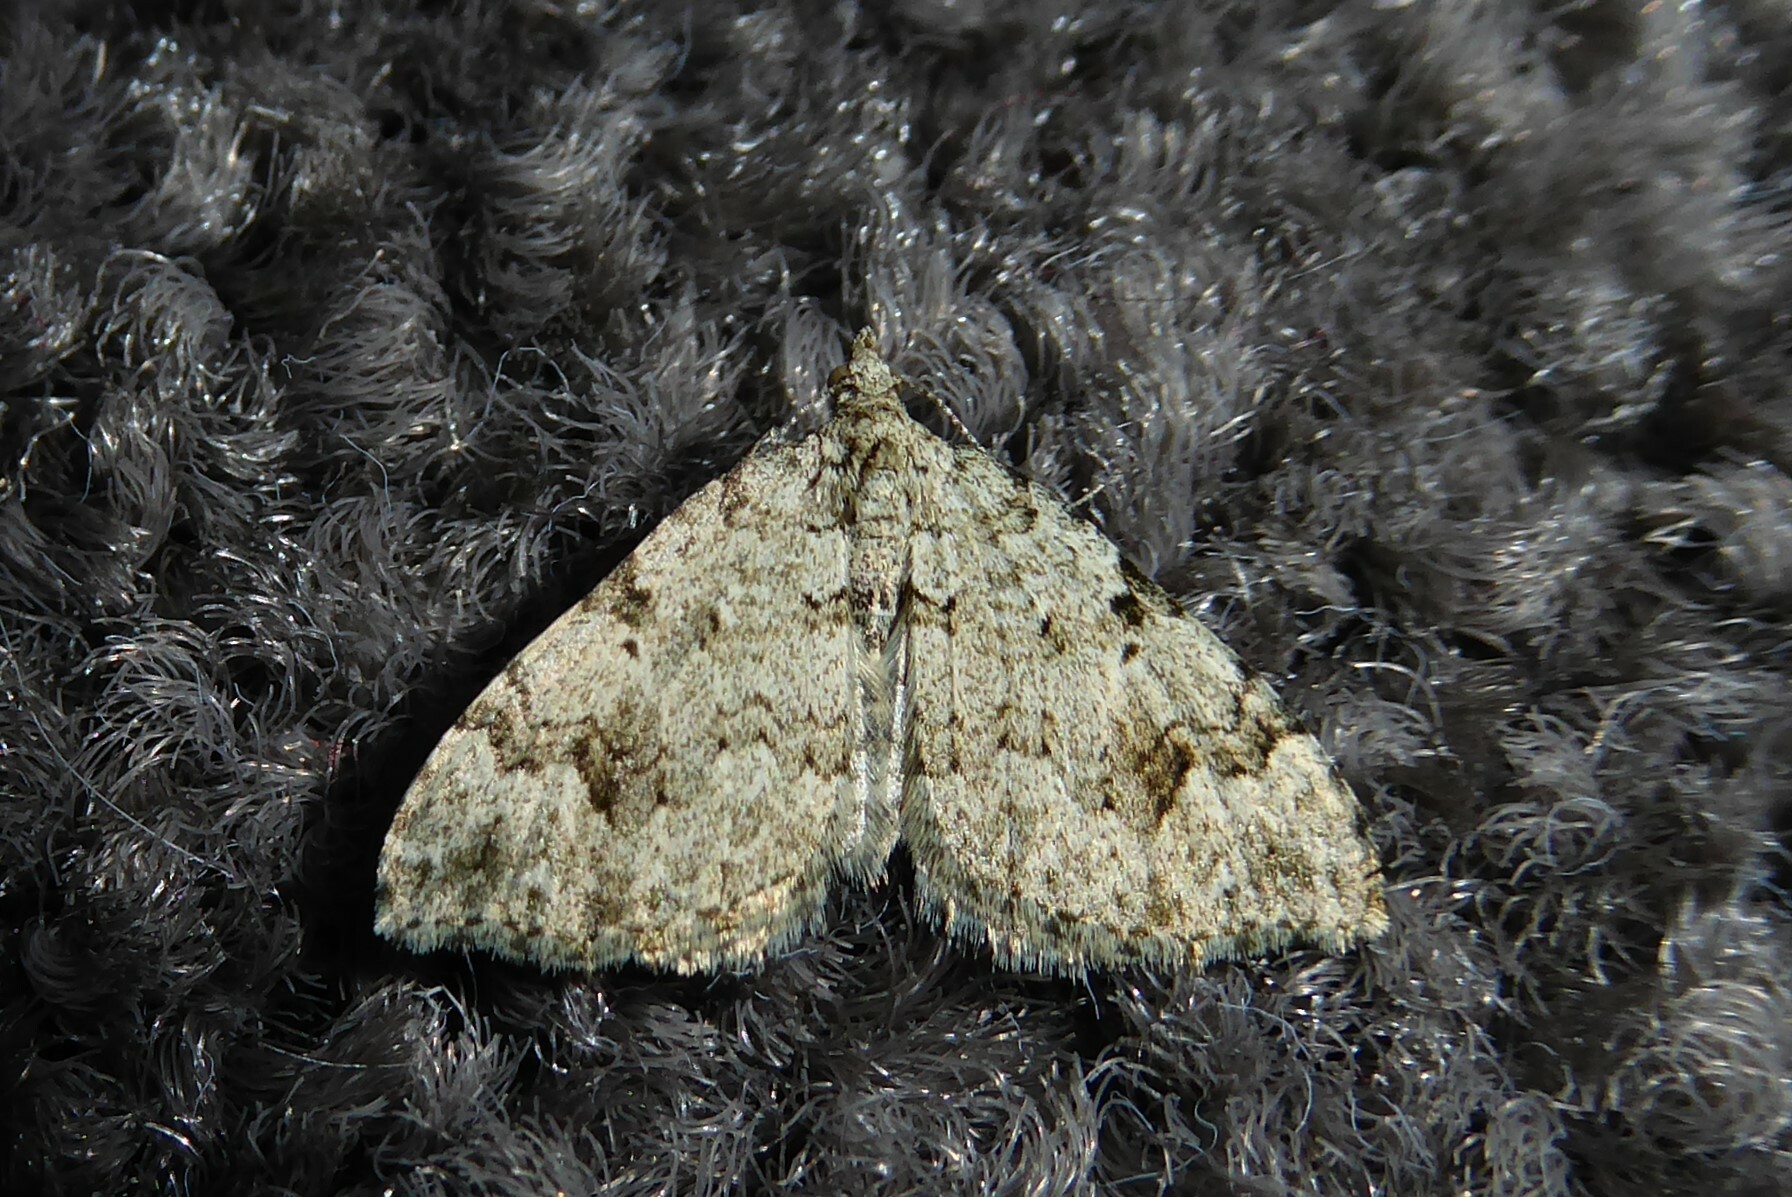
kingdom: Animalia
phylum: Arthropoda
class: Insecta
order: Lepidoptera
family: Geometridae
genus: Helastia
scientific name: Helastia cinerearia
